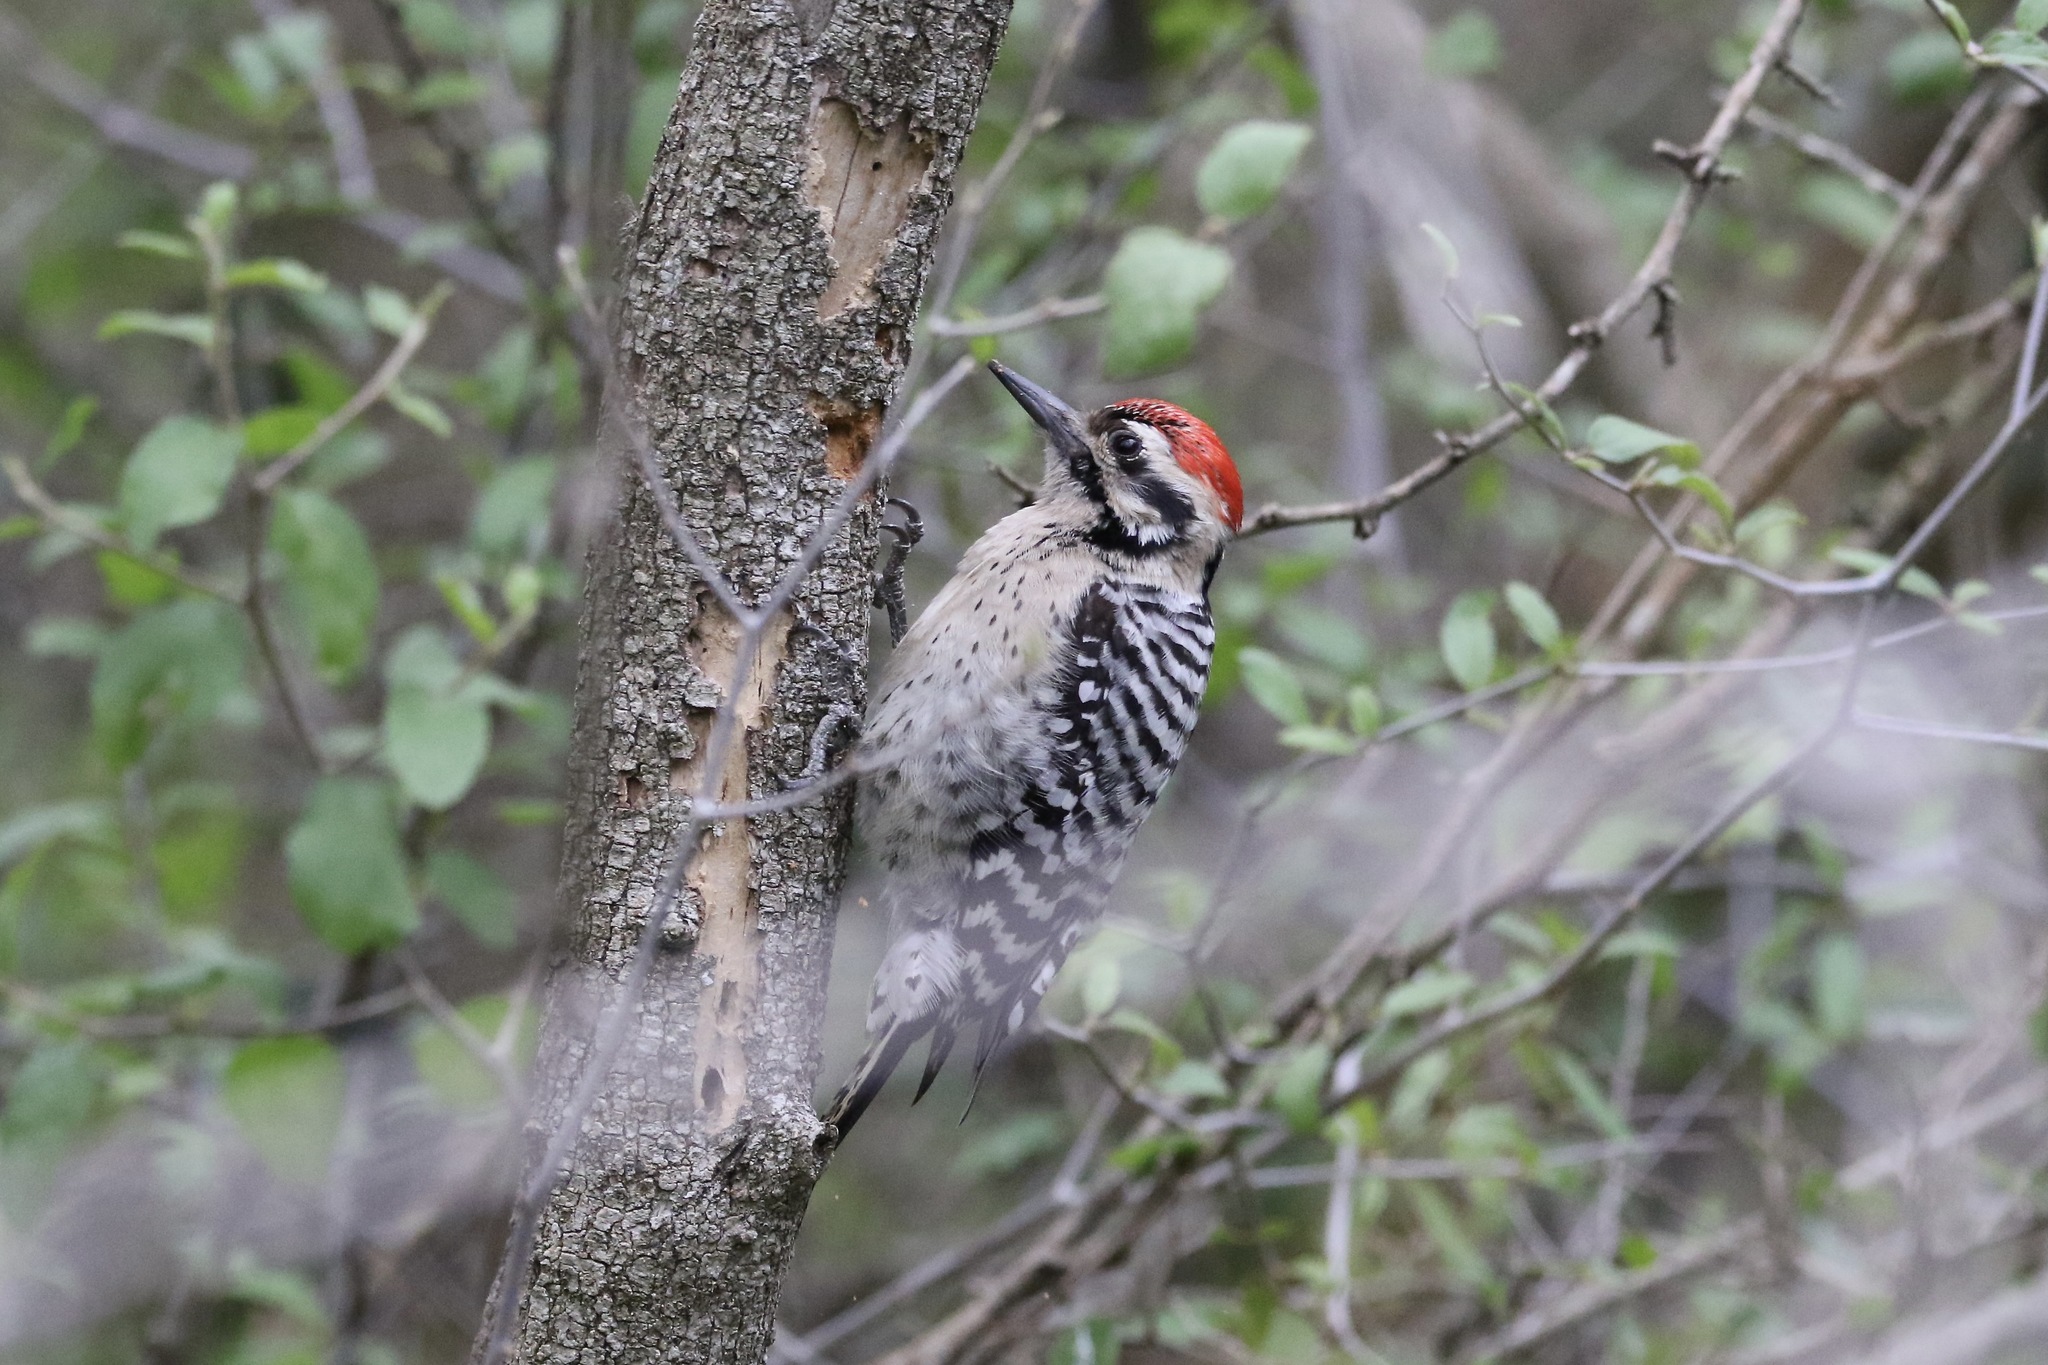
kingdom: Animalia
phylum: Chordata
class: Aves
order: Piciformes
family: Picidae
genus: Dryobates
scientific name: Dryobates scalaris
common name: Ladder-backed woodpecker
